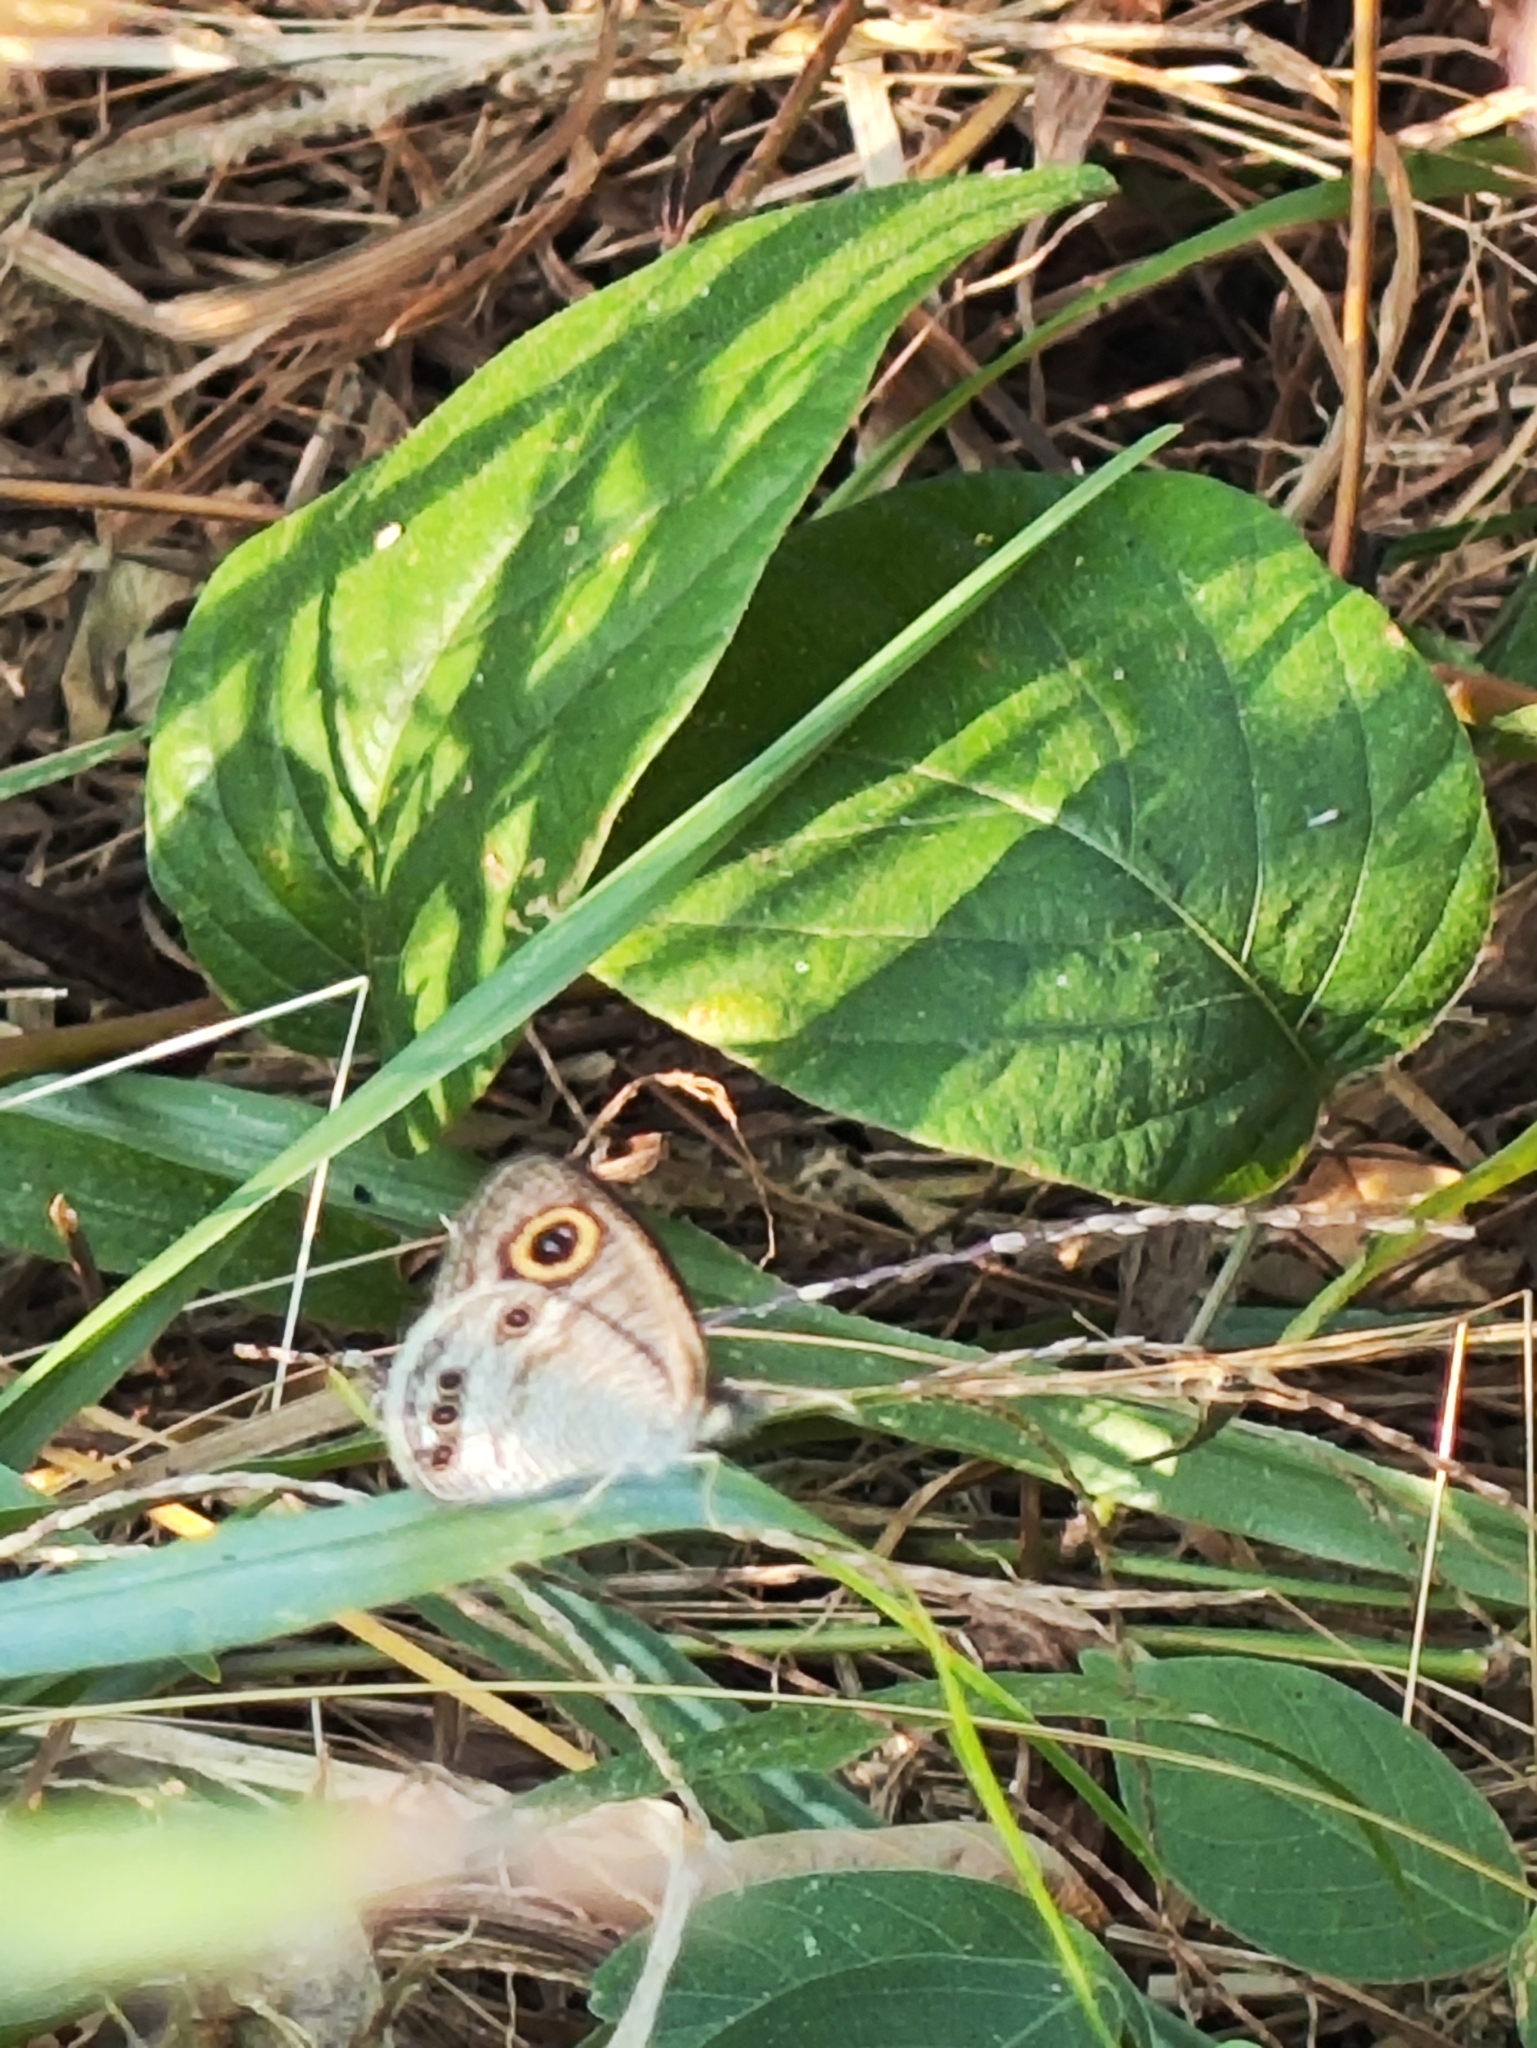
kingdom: Animalia
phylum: Arthropoda
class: Insecta
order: Lepidoptera
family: Nymphalidae
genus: Ypthima
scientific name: Ypthima huebneri
